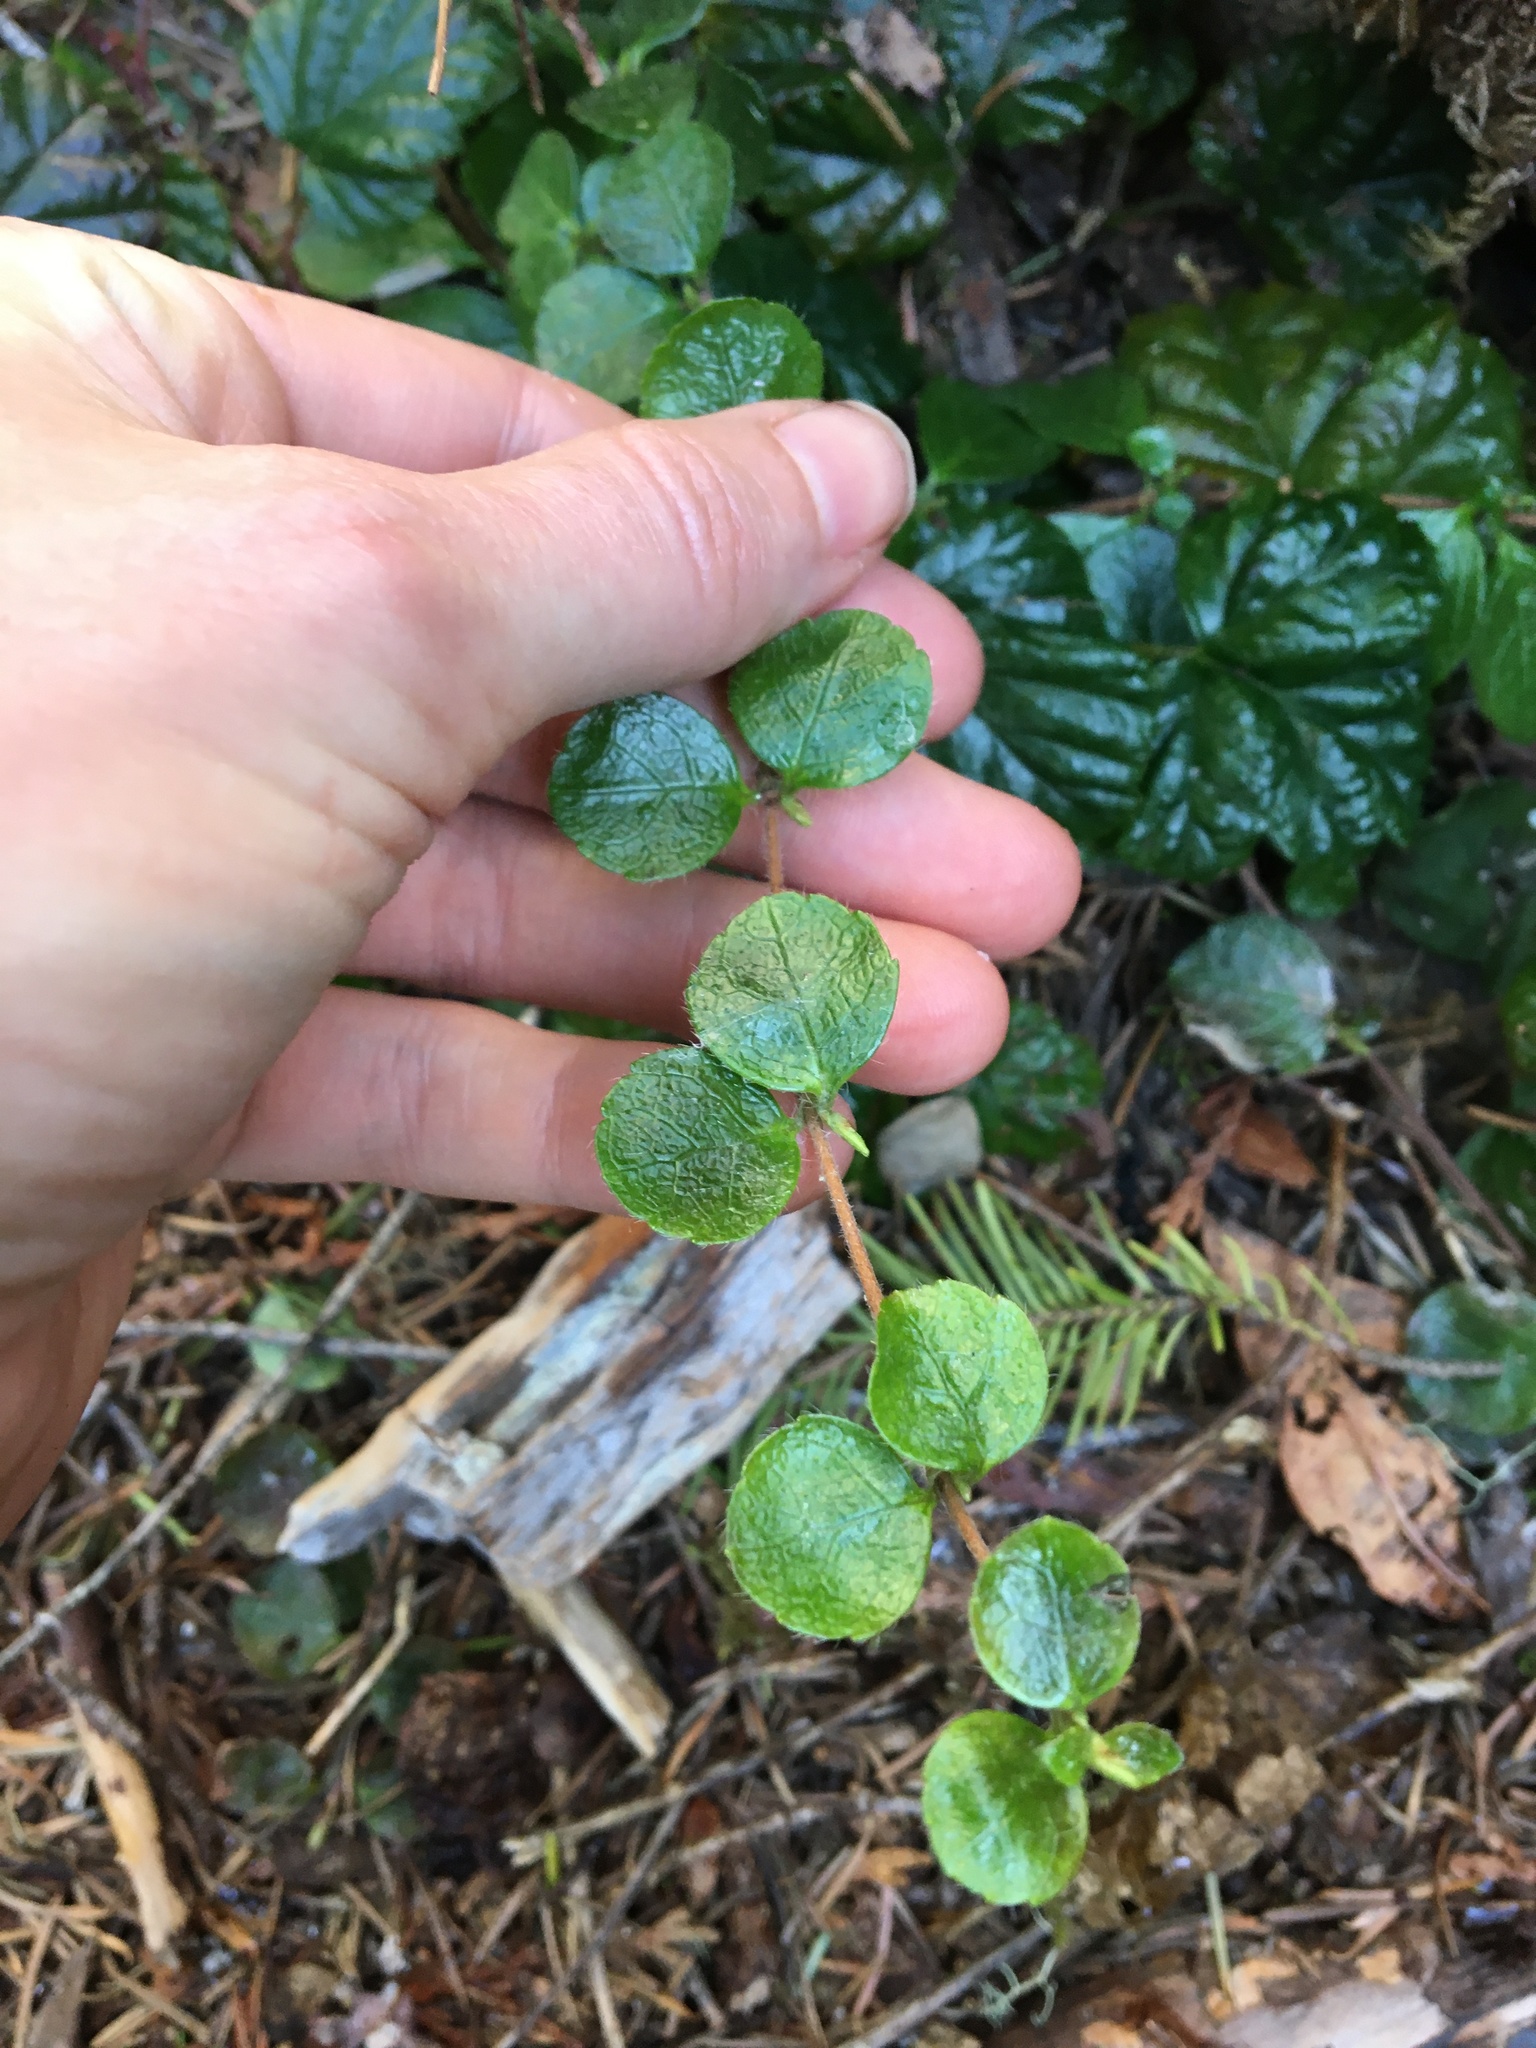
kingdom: Plantae
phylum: Tracheophyta
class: Magnoliopsida
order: Dipsacales
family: Caprifoliaceae
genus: Linnaea
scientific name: Linnaea borealis
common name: Twinflower
